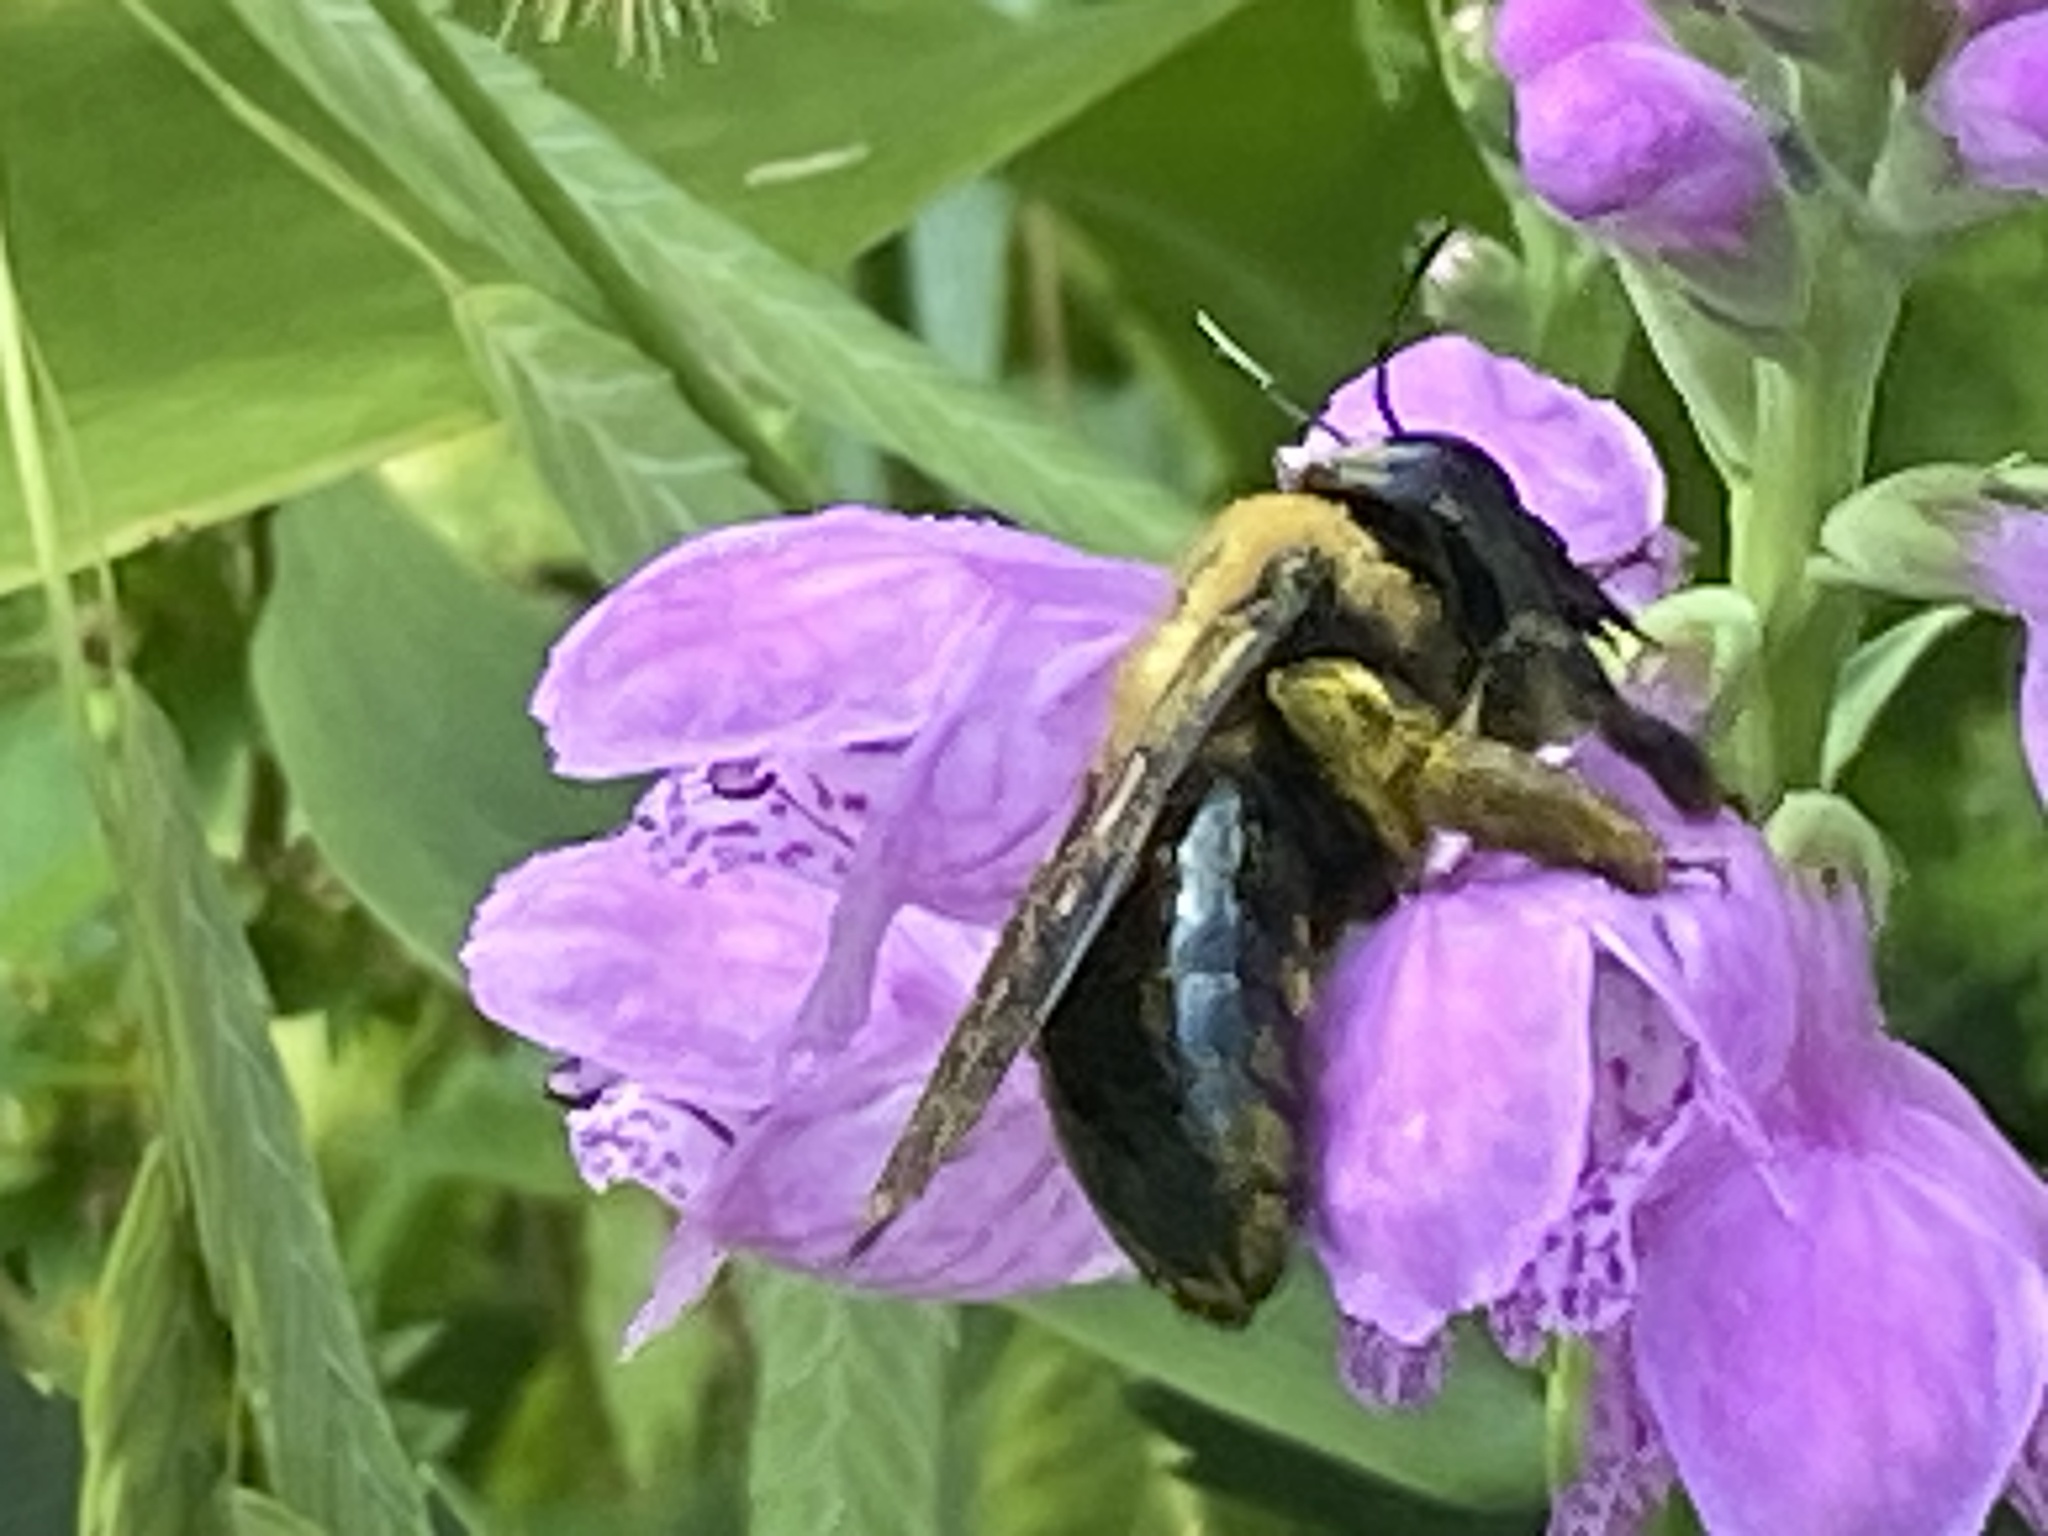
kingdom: Animalia
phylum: Arthropoda
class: Insecta
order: Hymenoptera
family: Apidae
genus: Xylocopa
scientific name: Xylocopa virginica
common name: Carpenter bee
